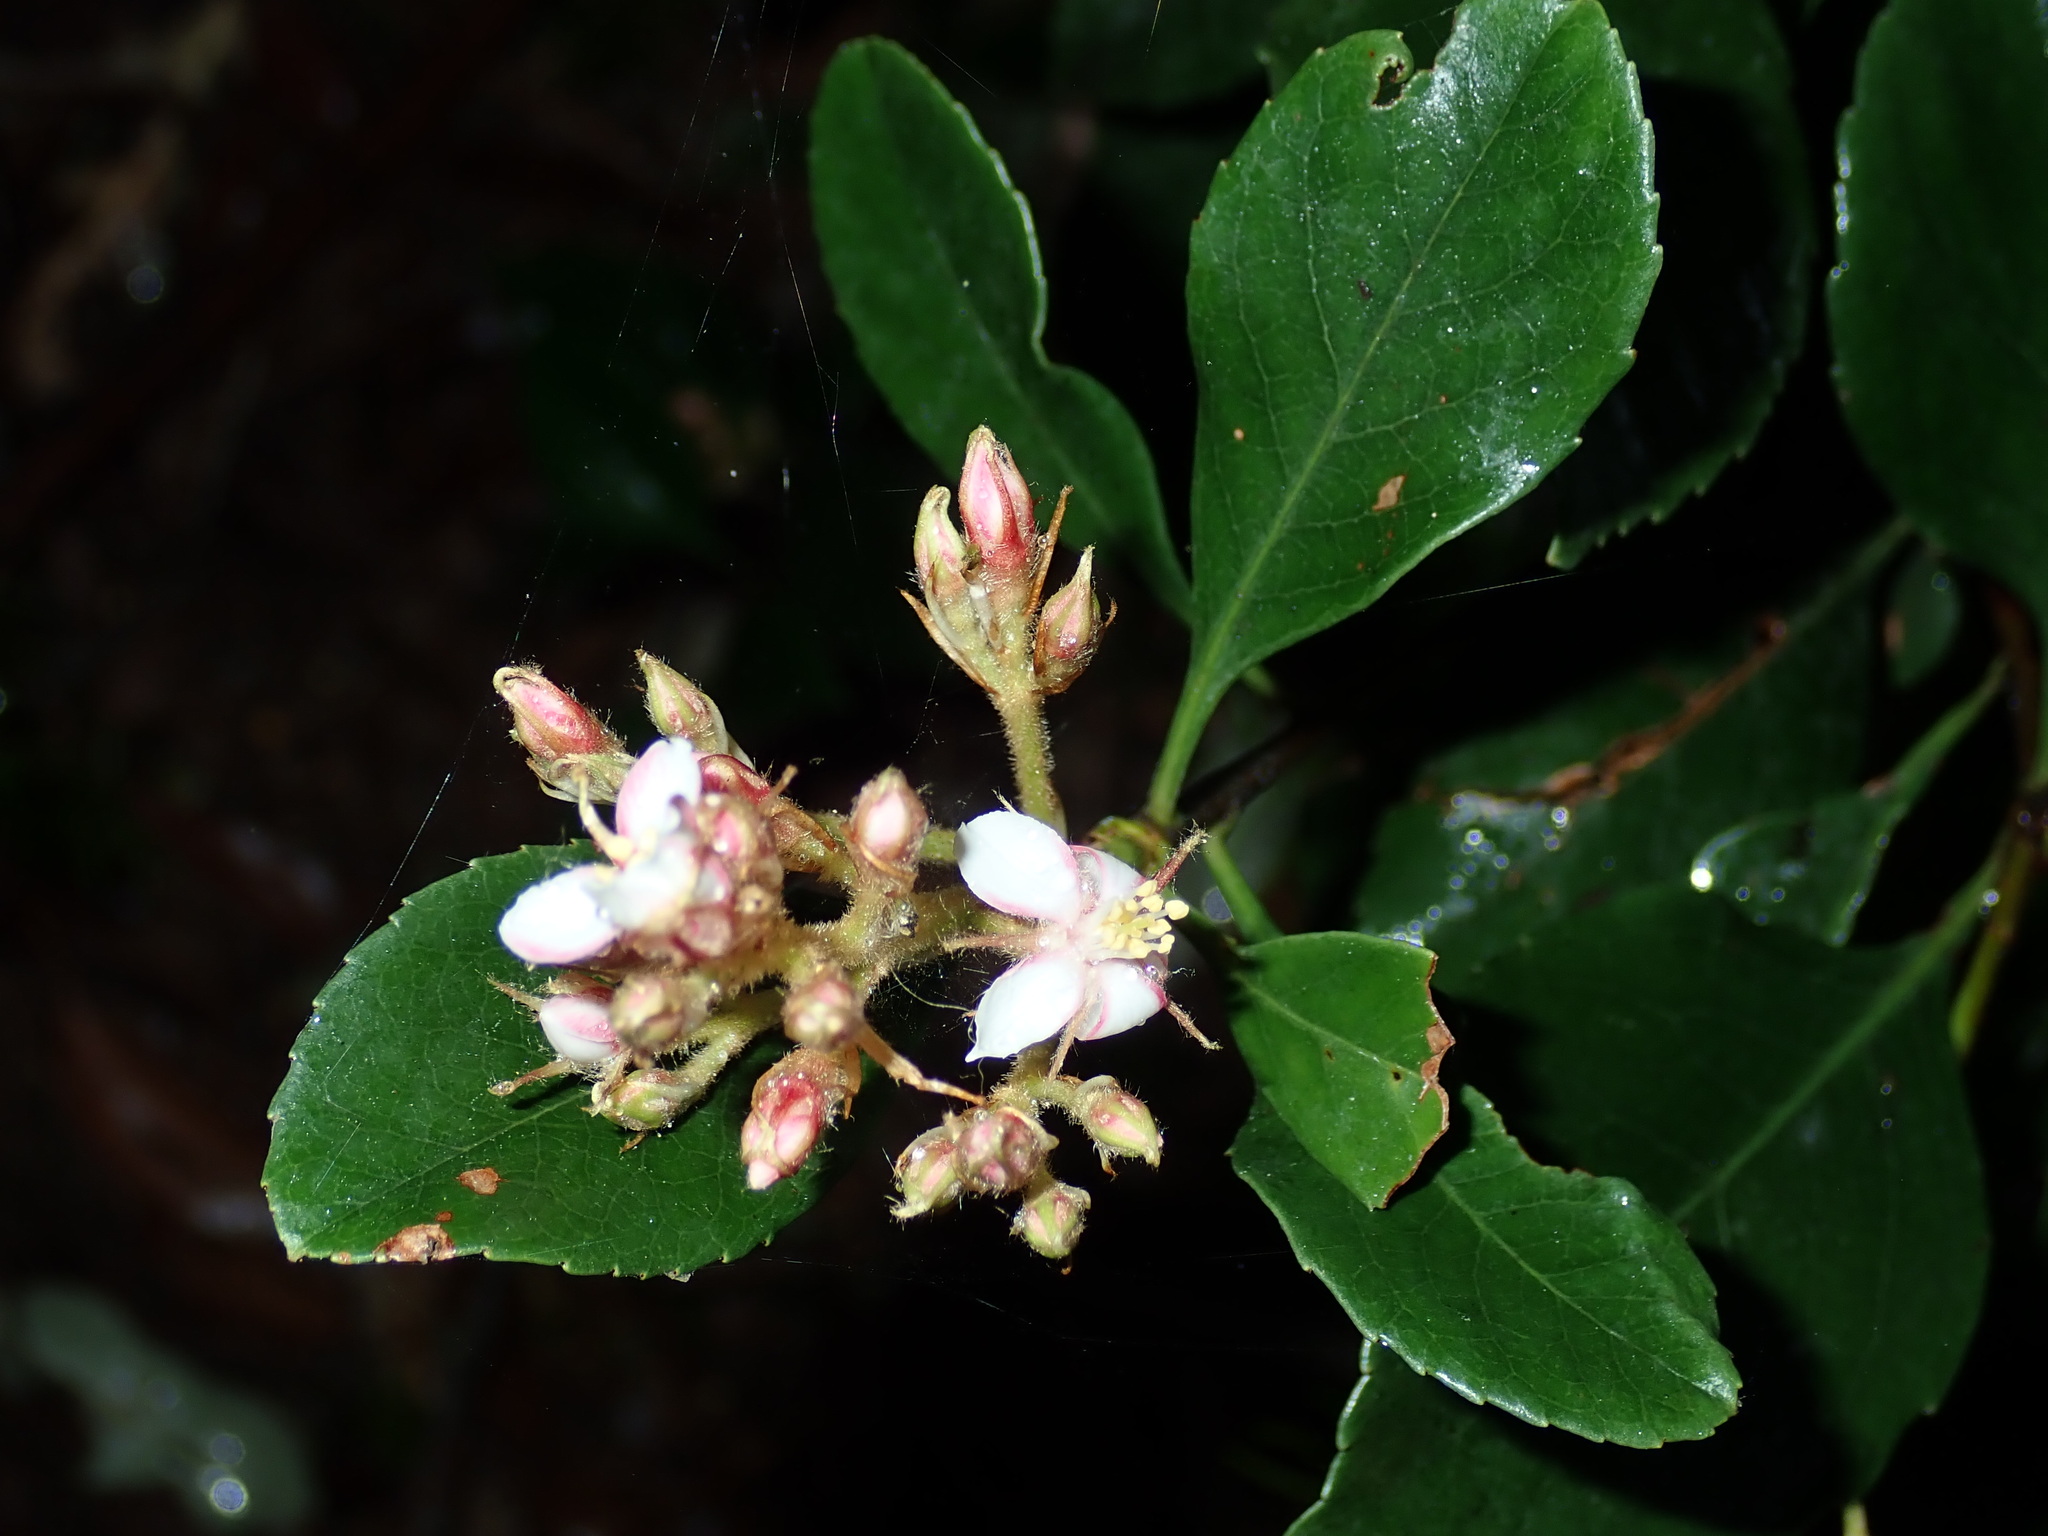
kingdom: Plantae
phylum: Tracheophyta
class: Magnoliopsida
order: Rosales
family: Rosaceae
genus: Rhaphiolepis
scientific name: Rhaphiolepis indica
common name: India-hawthorn
